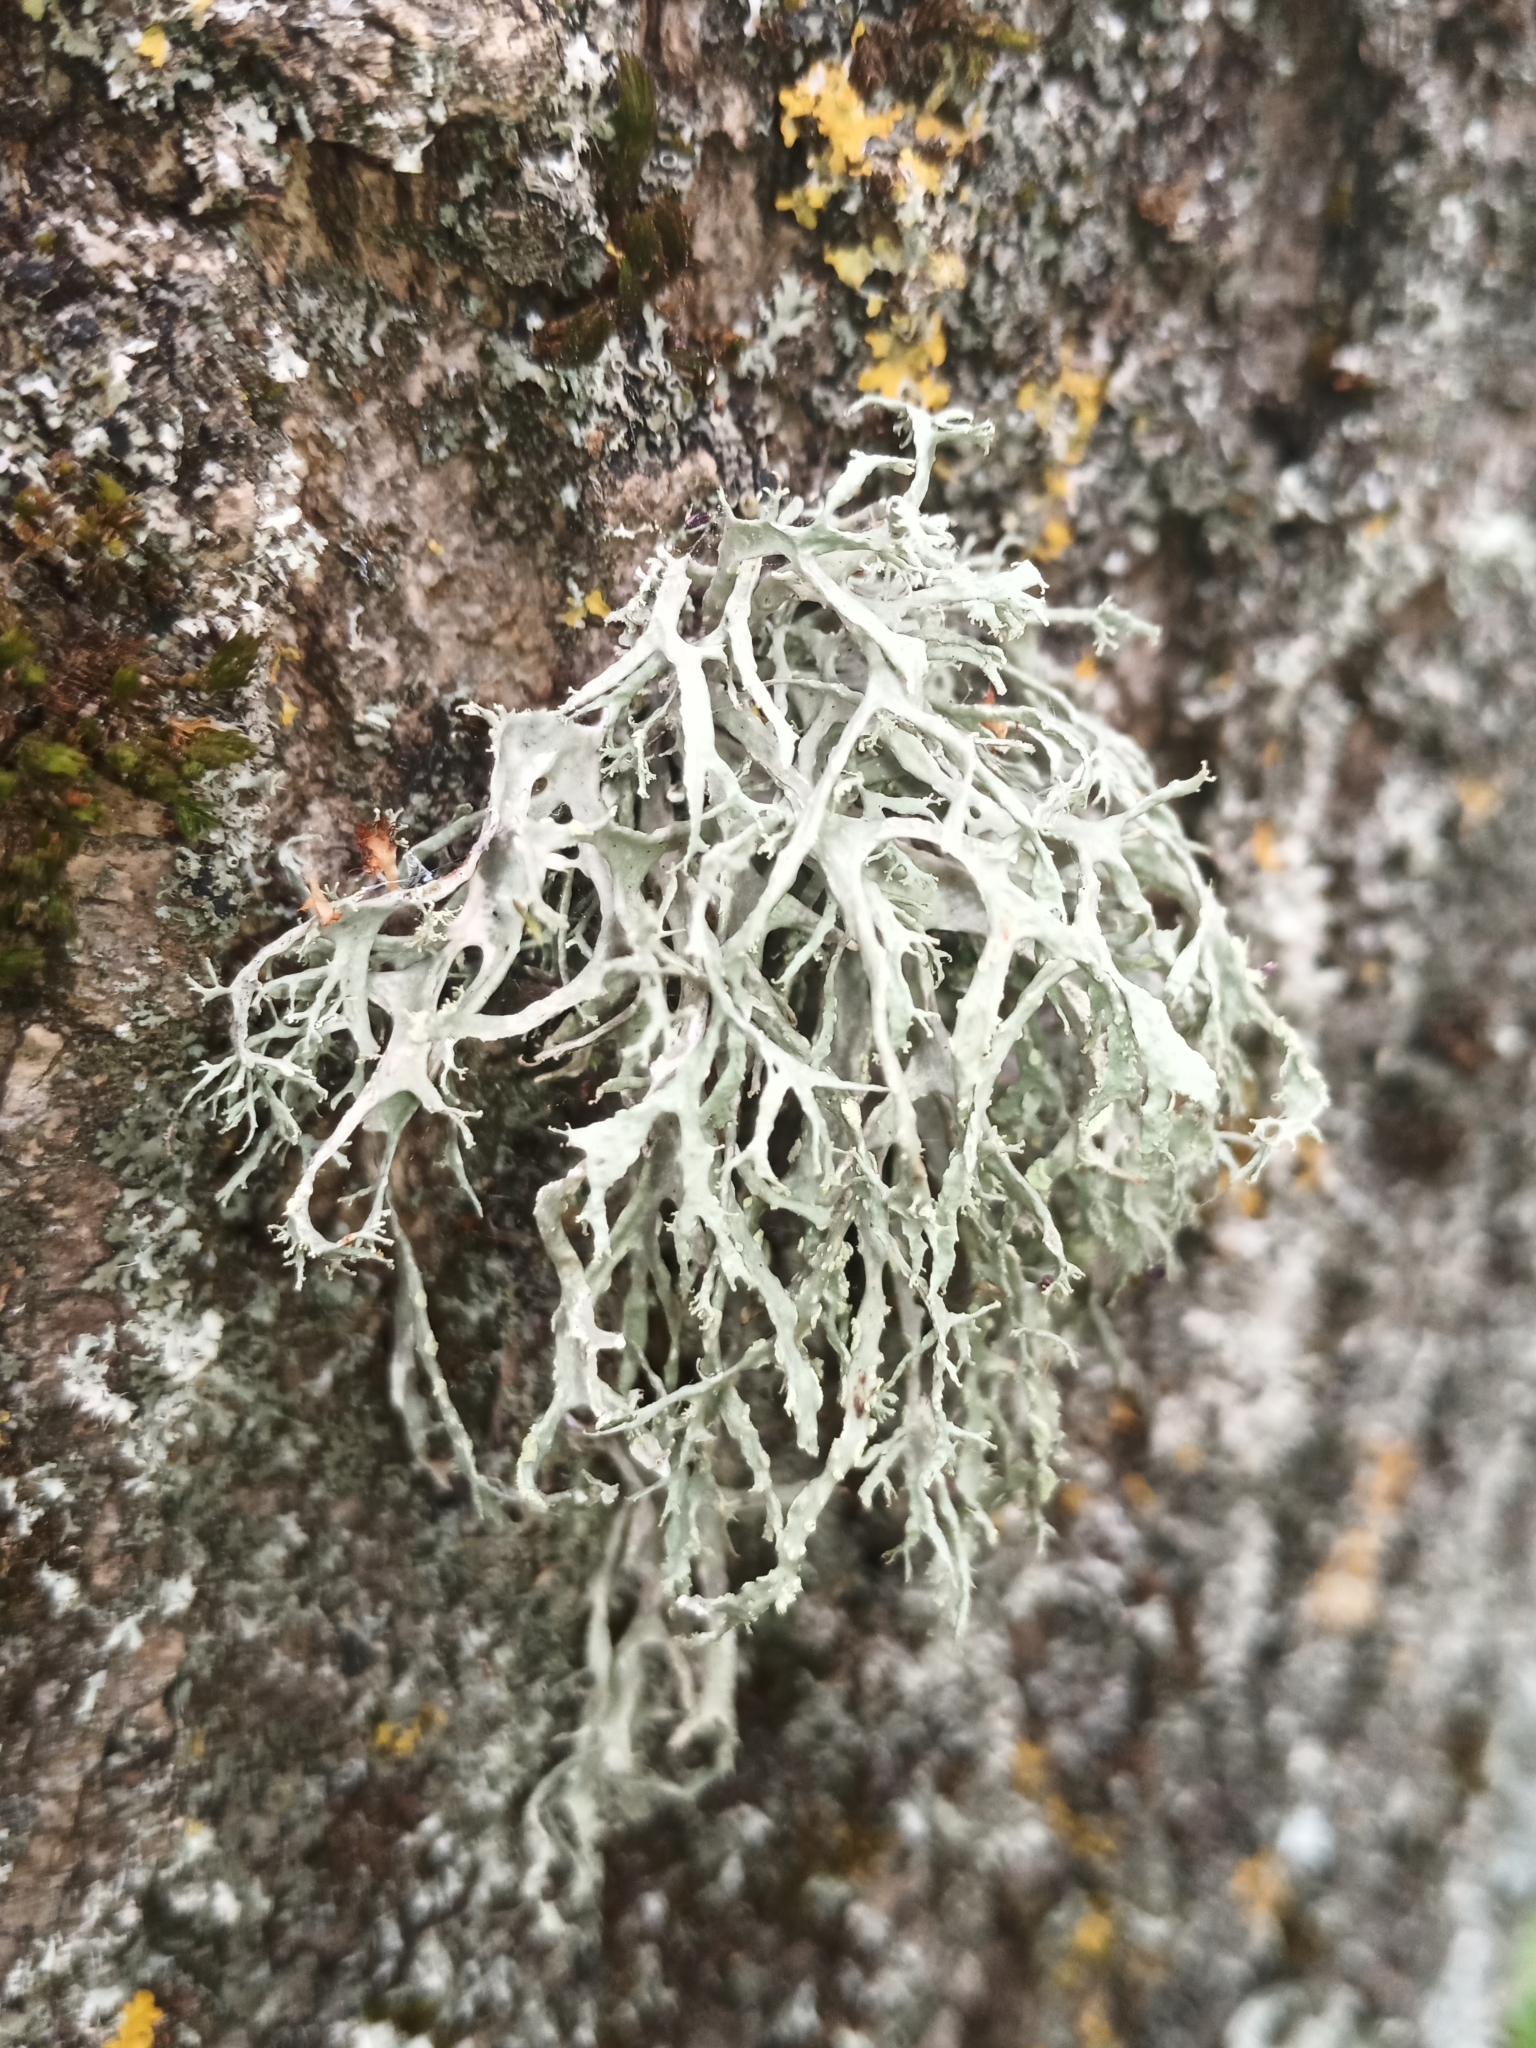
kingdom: Fungi
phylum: Ascomycota
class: Lecanoromycetes
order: Lecanorales
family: Ramalinaceae
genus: Ramalina
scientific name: Ramalina farinacea
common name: Farinose cartilage lichen
